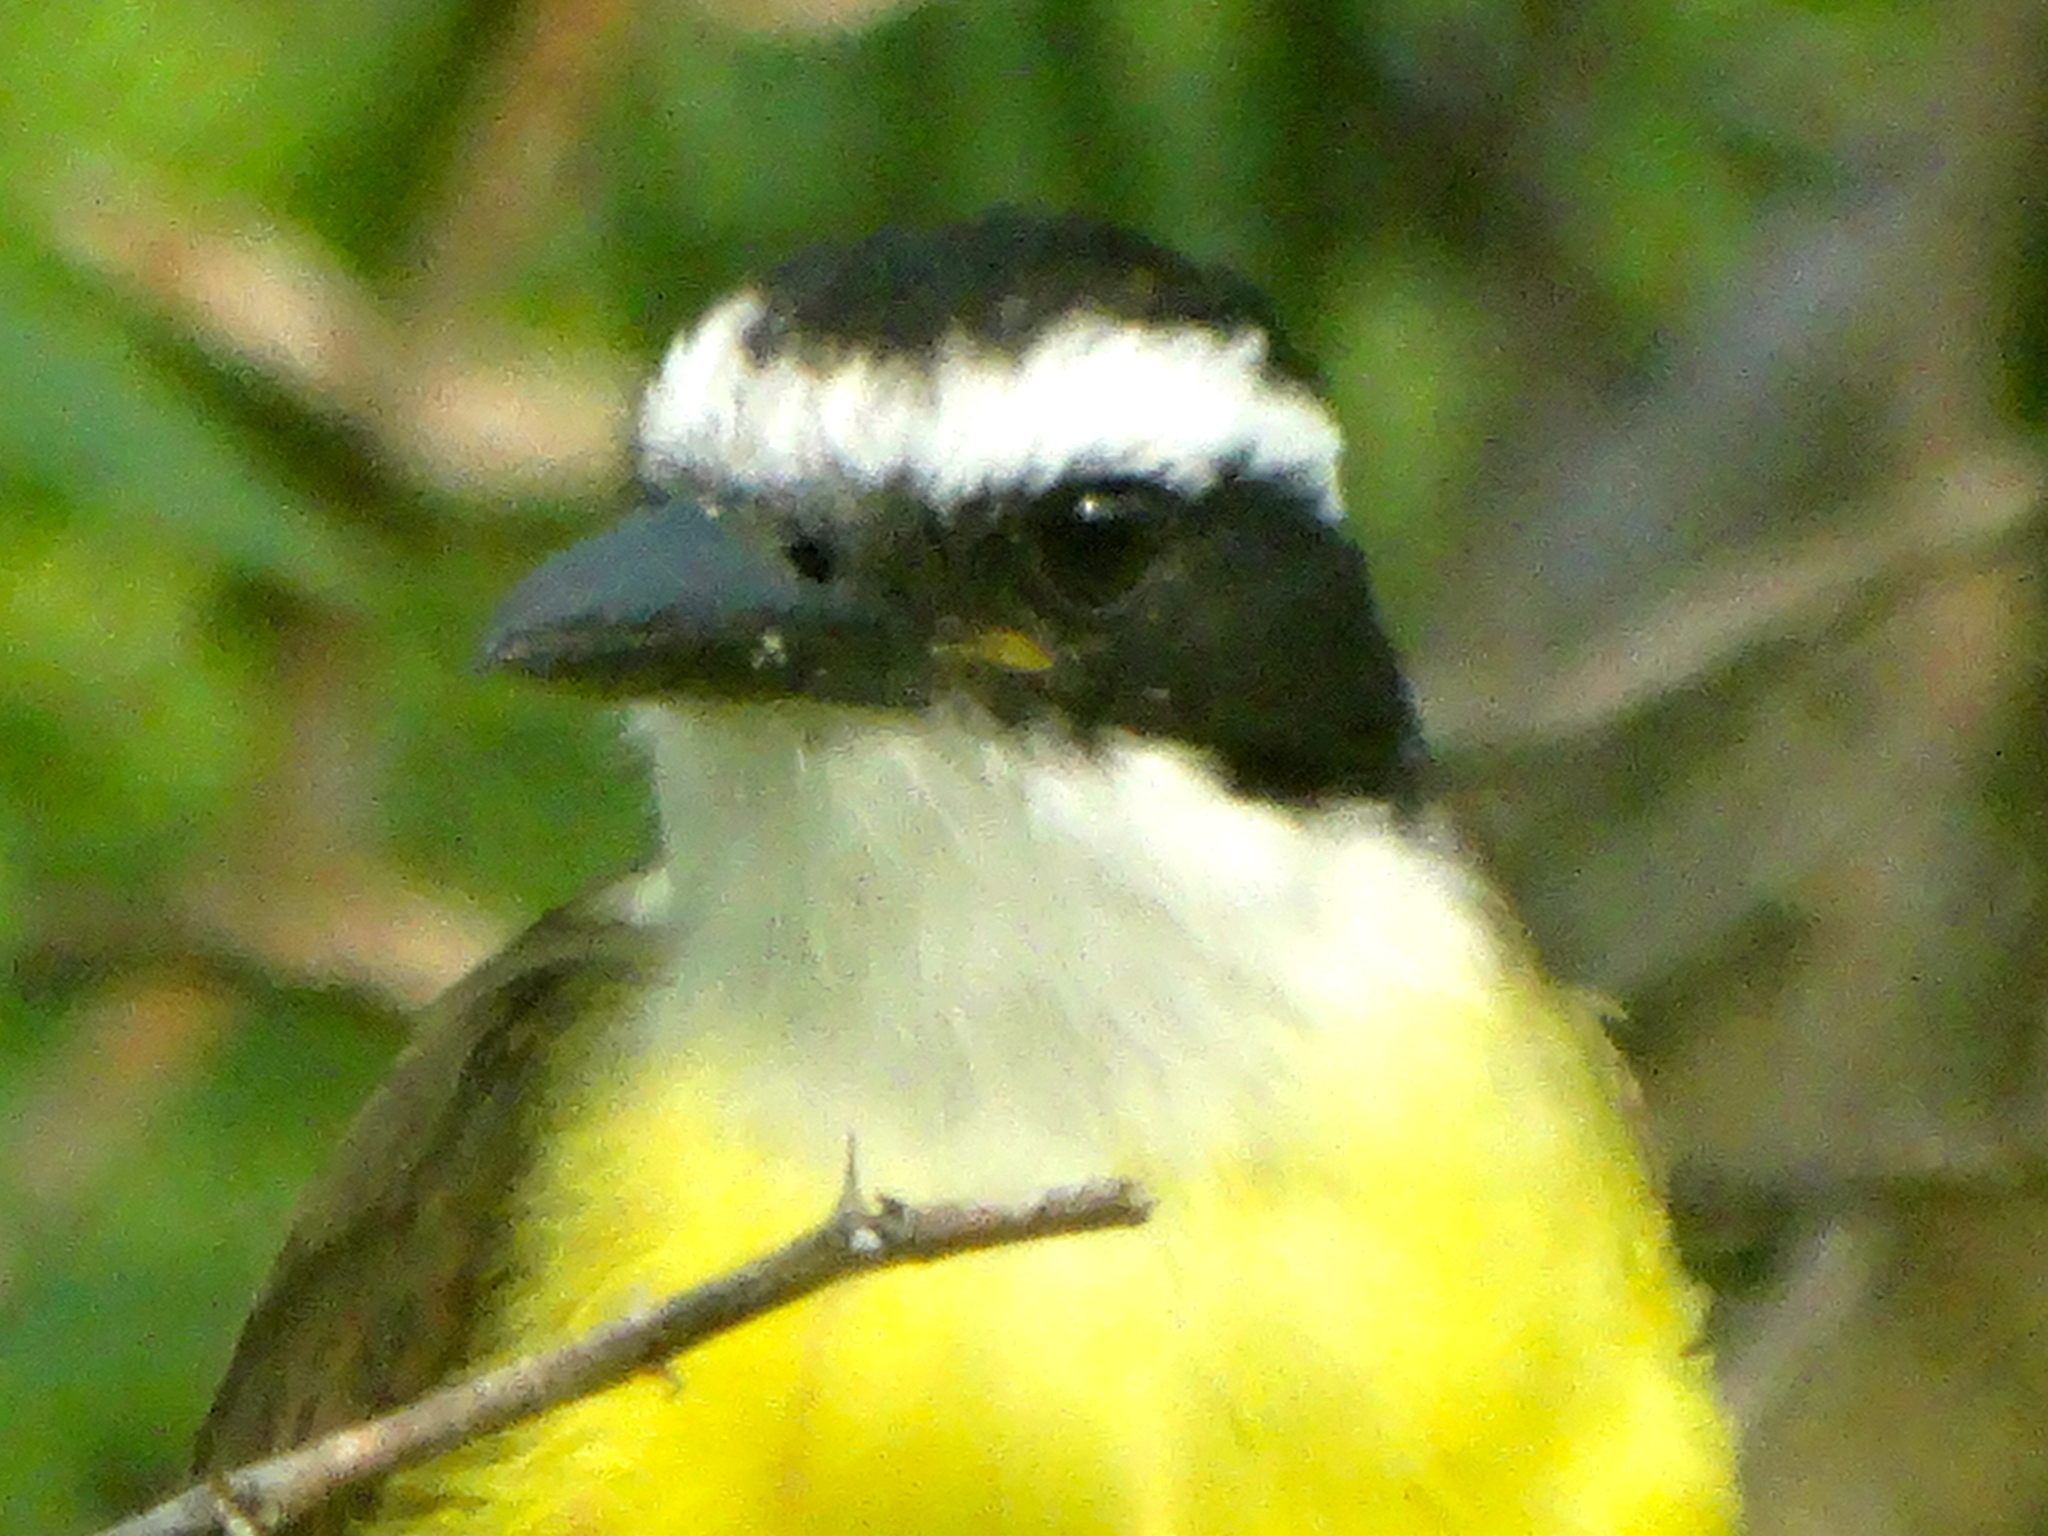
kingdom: Animalia
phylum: Chordata
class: Aves
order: Passeriformes
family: Tyrannidae
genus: Pitangus
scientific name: Pitangus sulphuratus
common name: Great kiskadee
